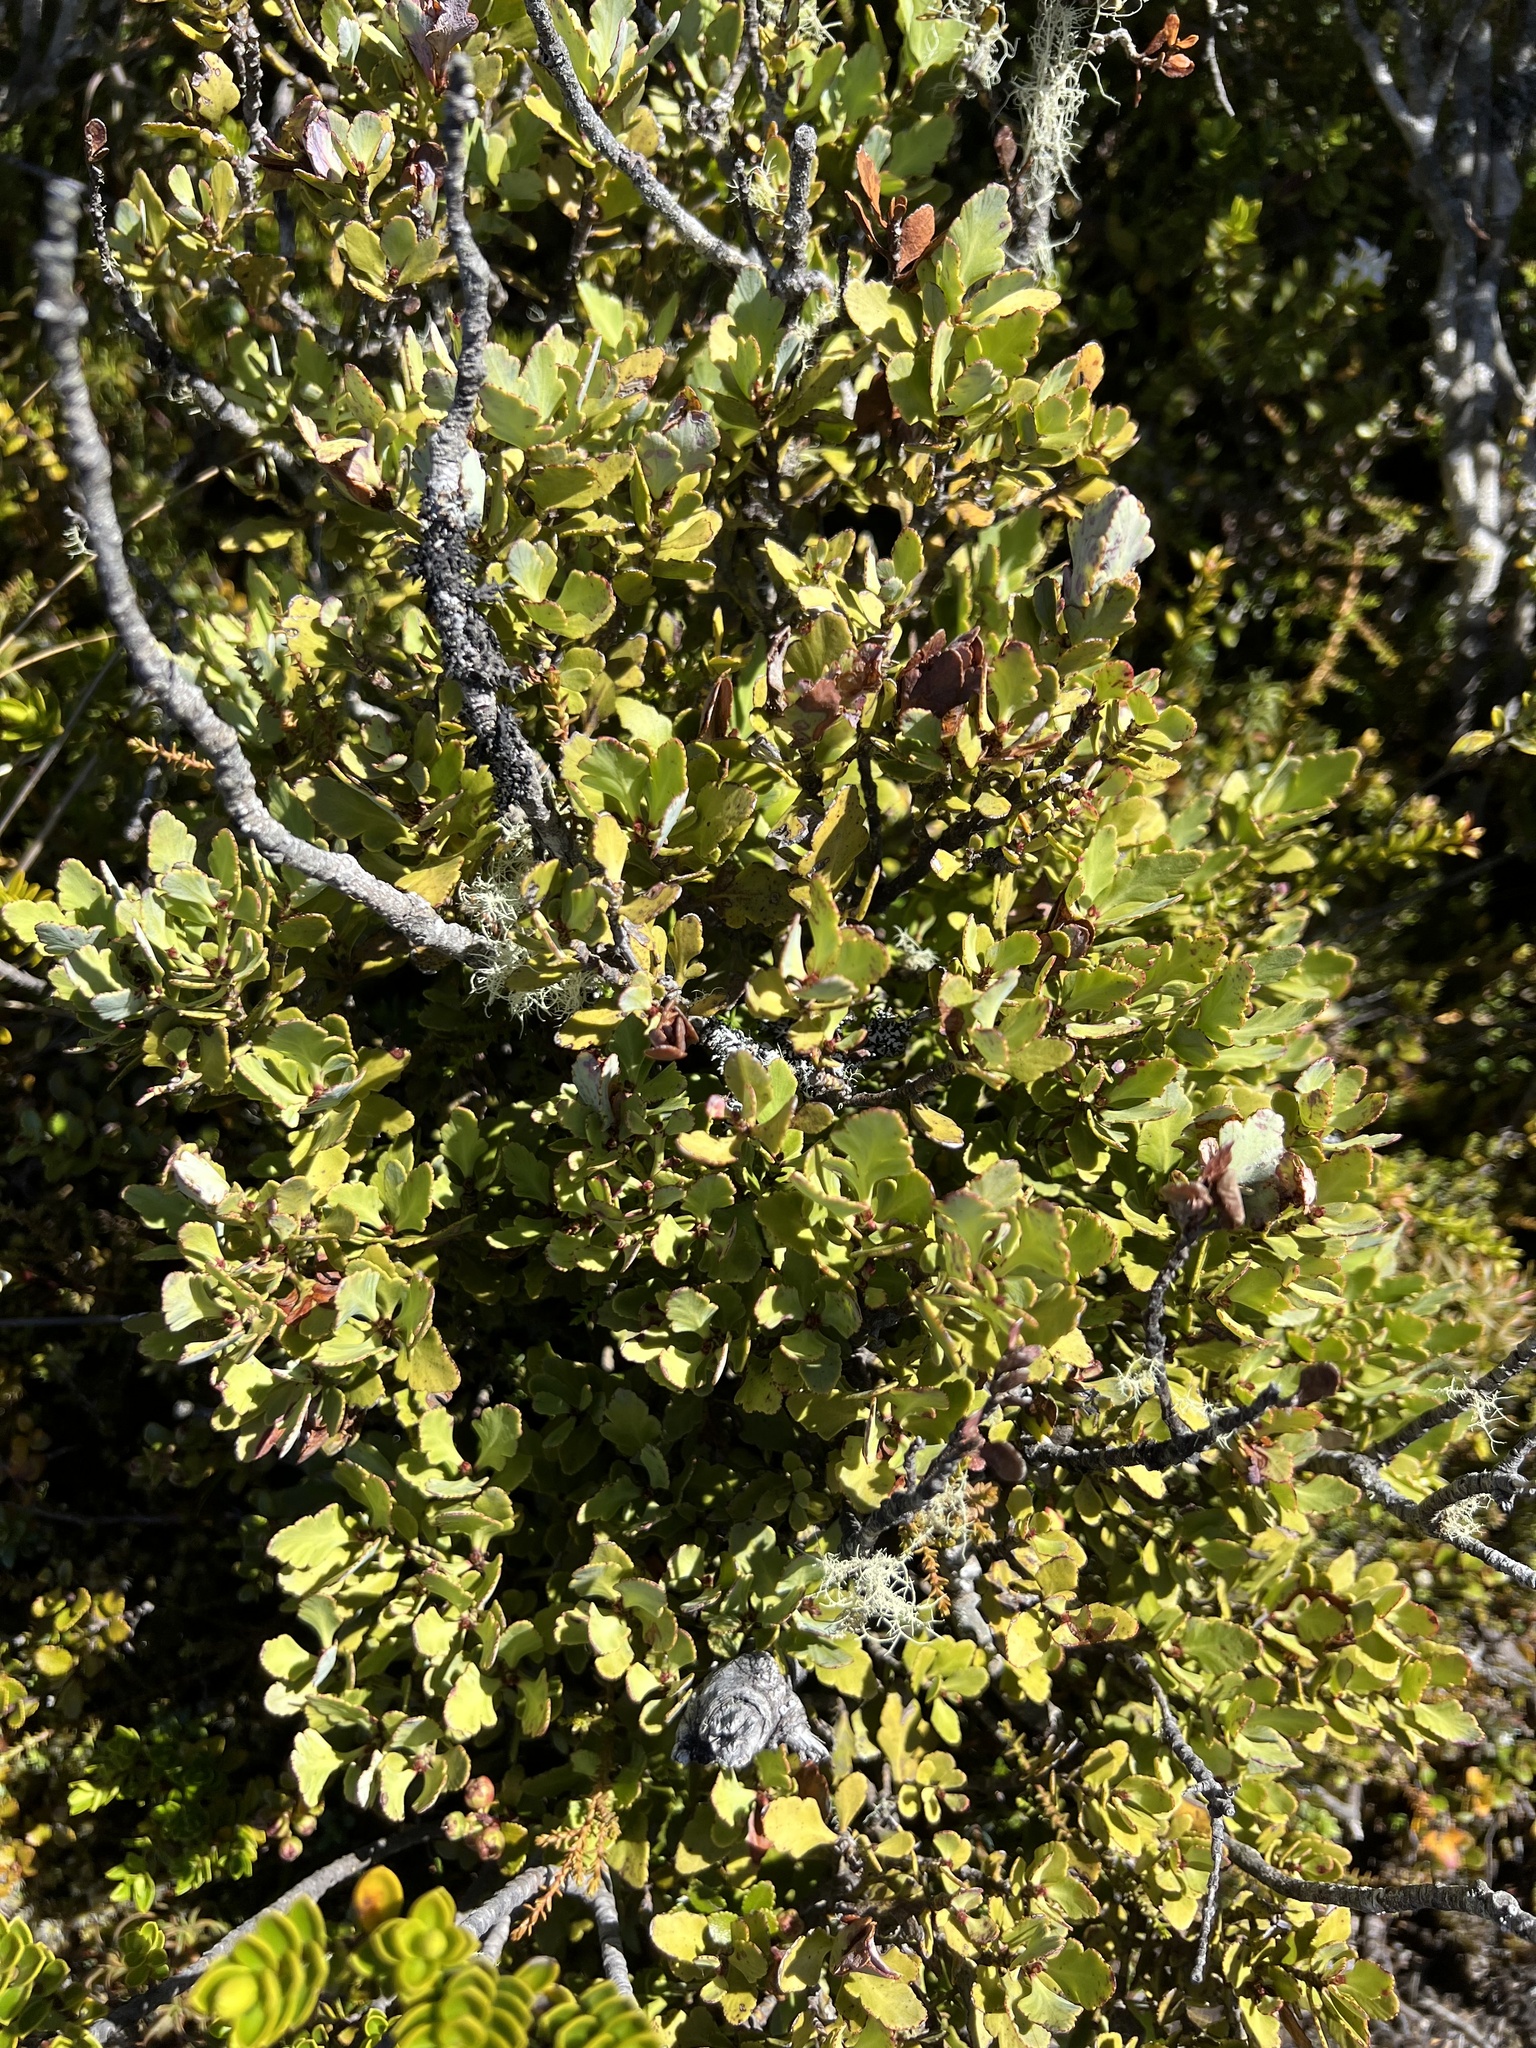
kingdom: Plantae
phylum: Tracheophyta
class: Pinopsida
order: Pinales
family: Phyllocladaceae
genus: Phyllocladus
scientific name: Phyllocladus trichomanoides
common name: Celery pine
